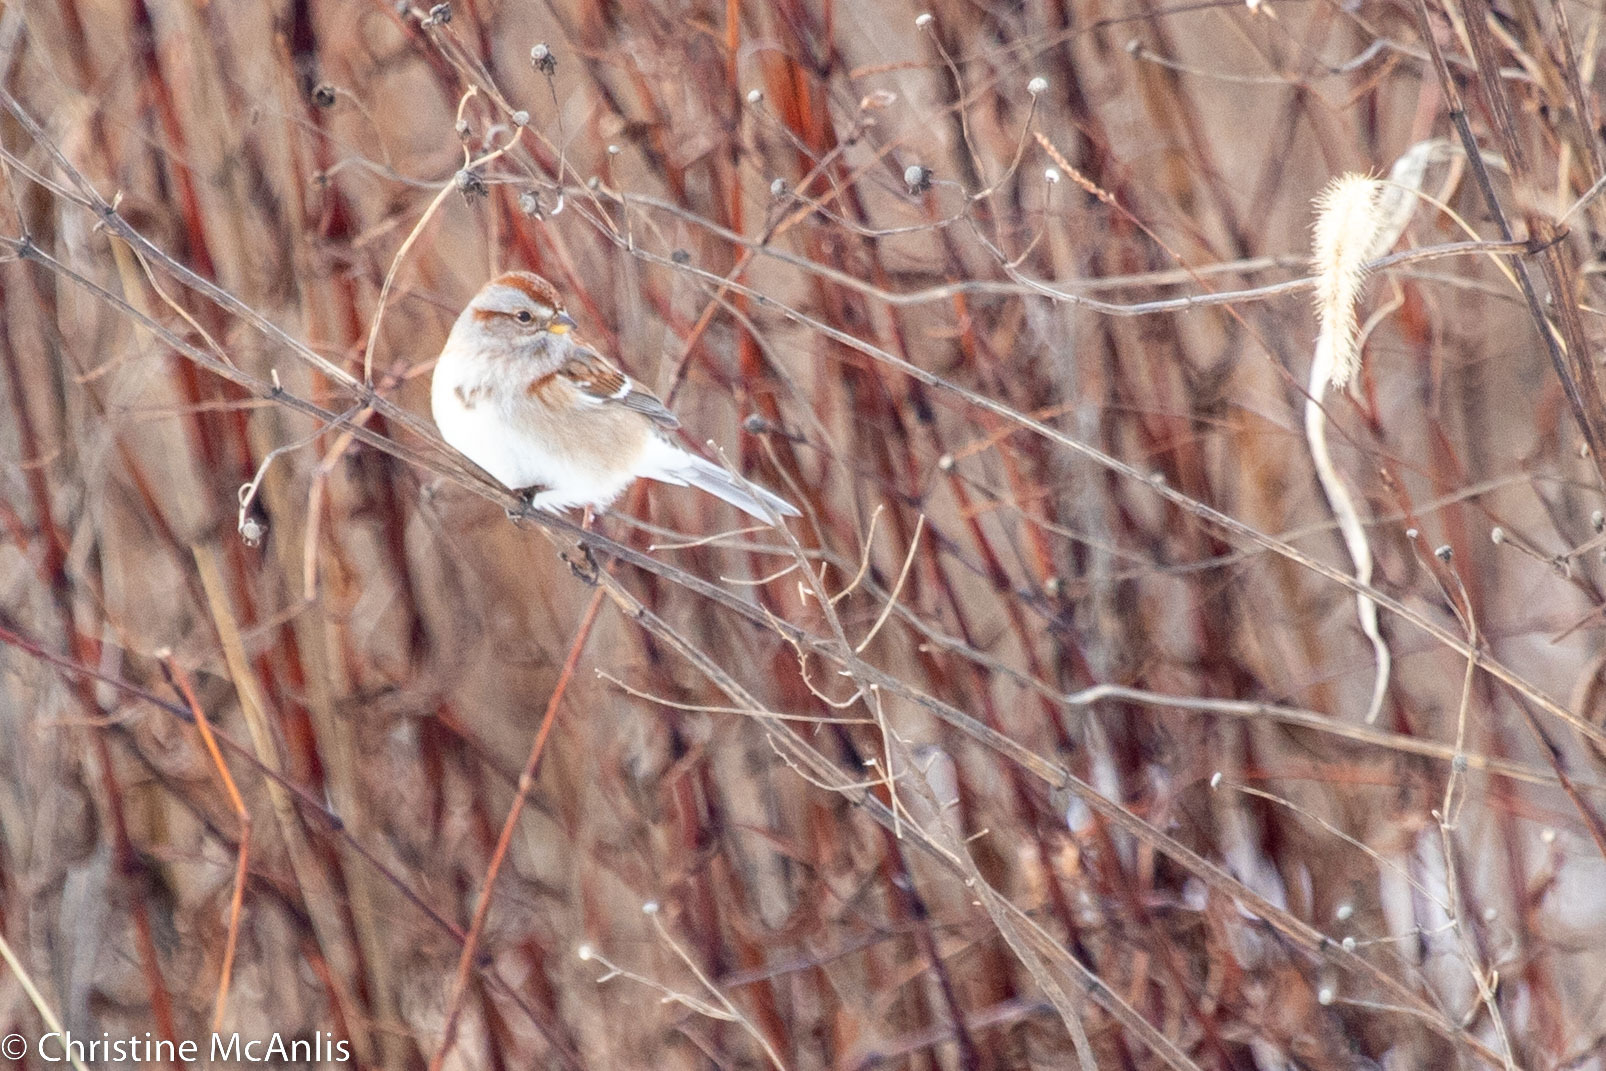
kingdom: Animalia
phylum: Chordata
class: Aves
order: Passeriformes
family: Passerellidae
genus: Spizelloides
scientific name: Spizelloides arborea
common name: American tree sparrow
